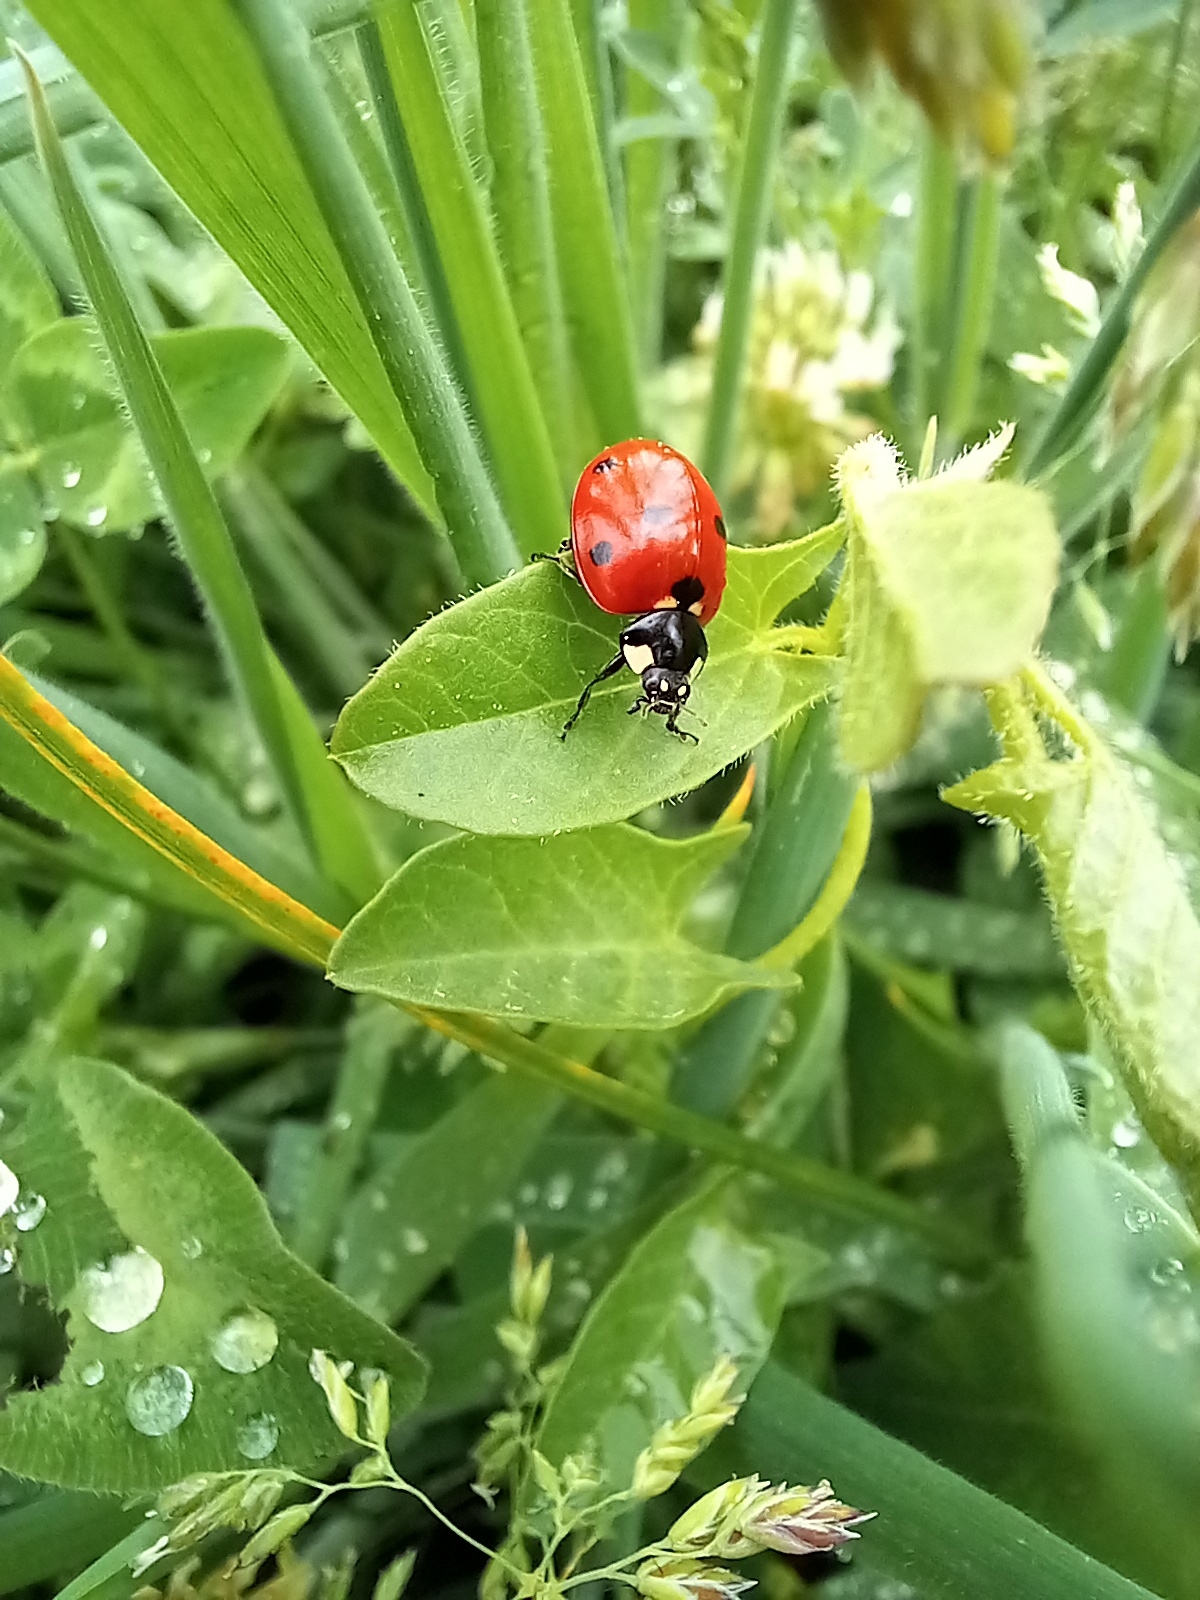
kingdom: Animalia
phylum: Arthropoda
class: Insecta
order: Coleoptera
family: Coccinellidae
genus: Coccinella
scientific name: Coccinella septempunctata
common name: Sevenspotted lady beetle
